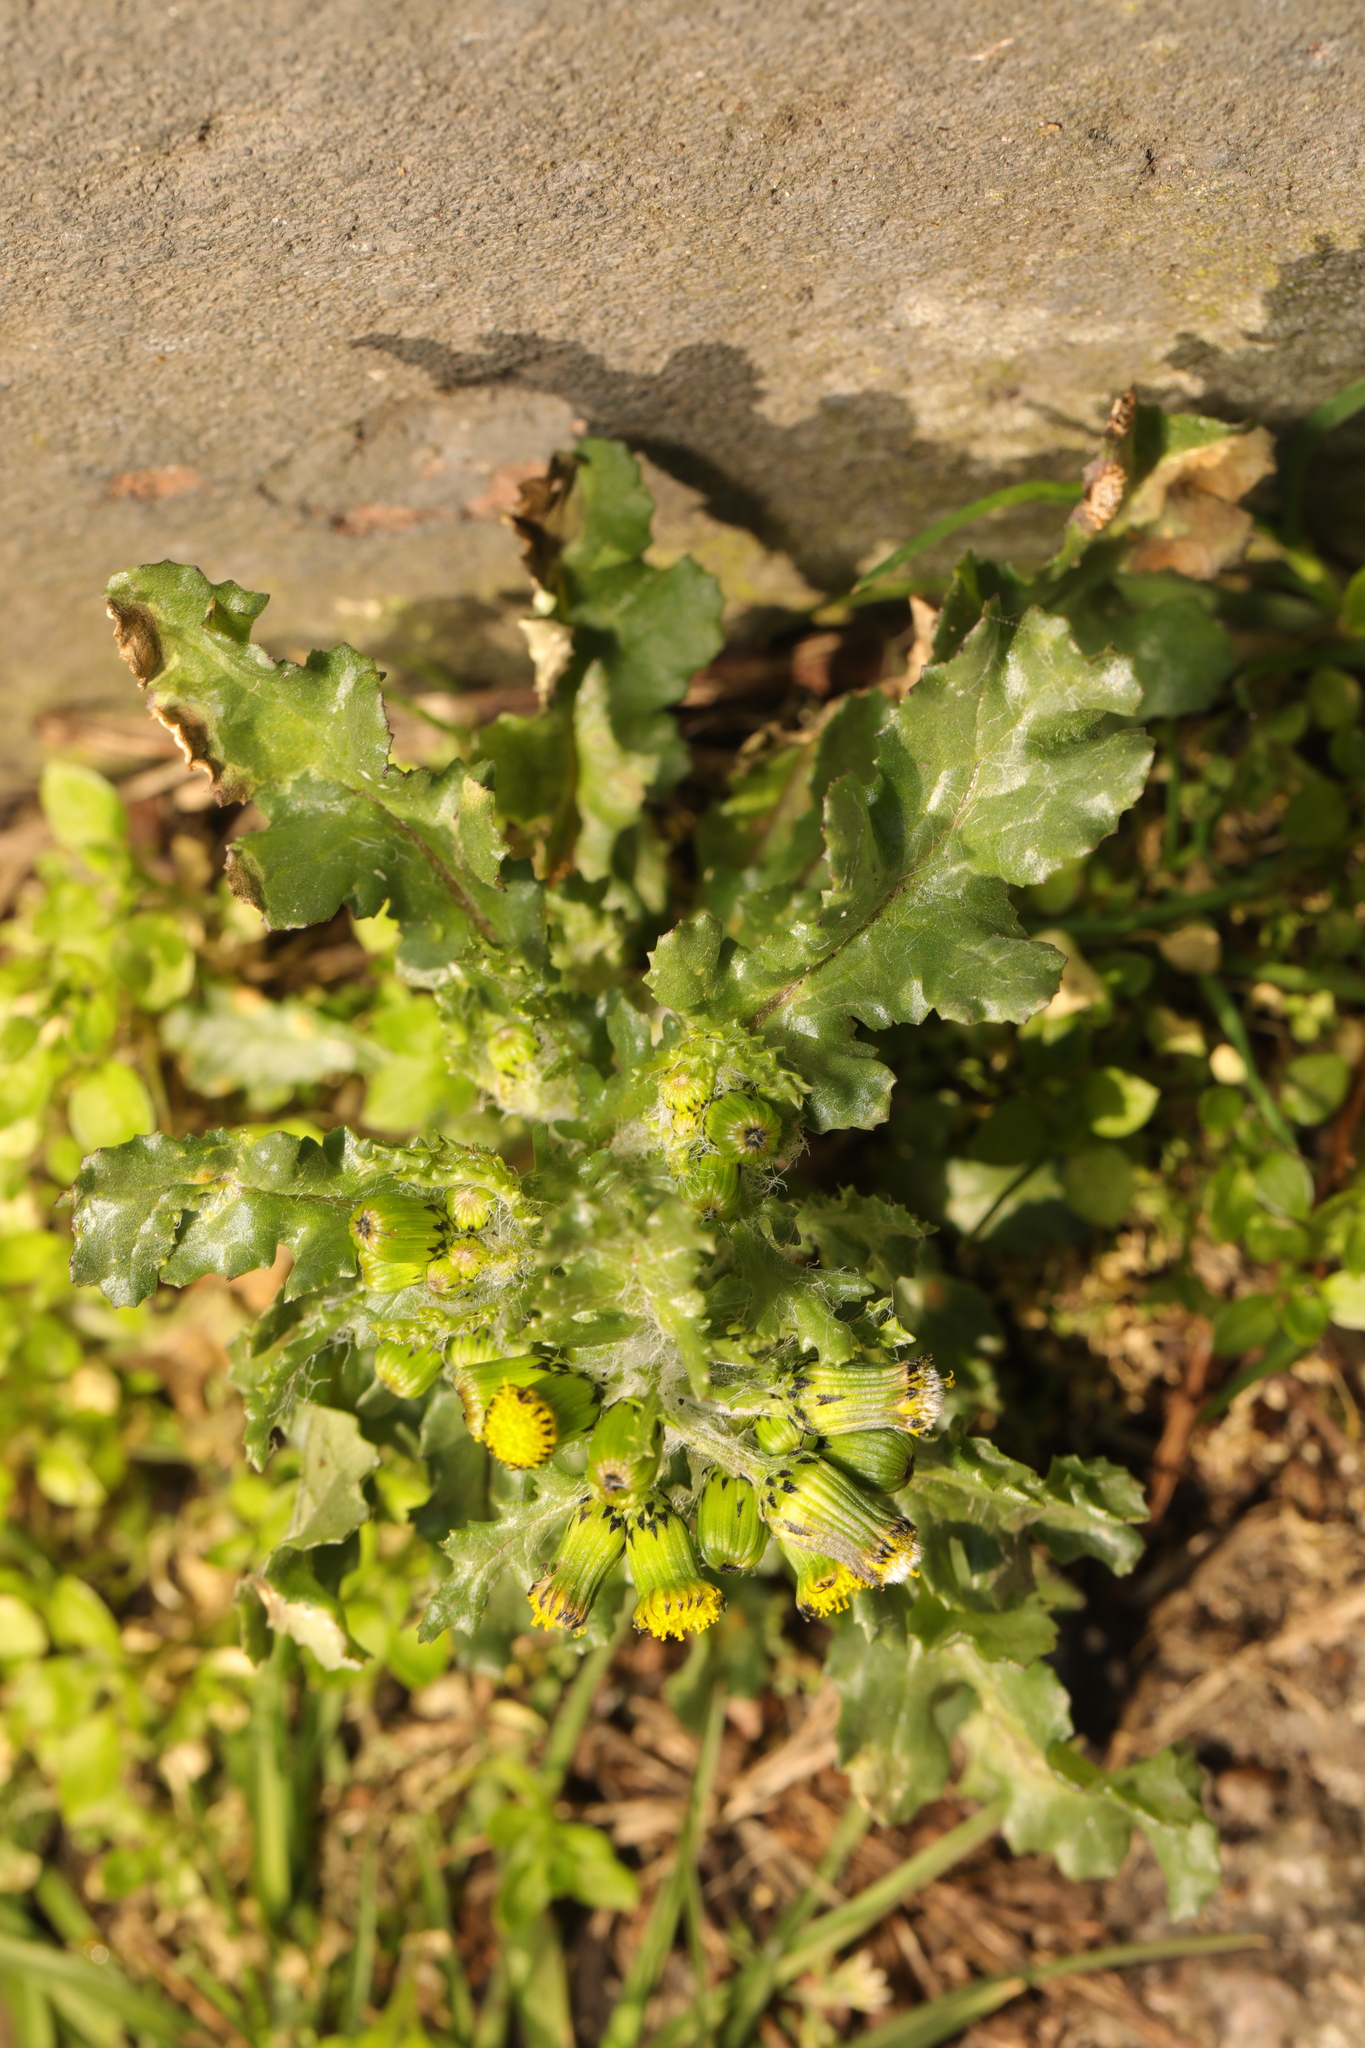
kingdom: Plantae
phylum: Tracheophyta
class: Magnoliopsida
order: Asterales
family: Asteraceae
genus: Senecio
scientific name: Senecio vulgaris
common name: Old-man-in-the-spring
